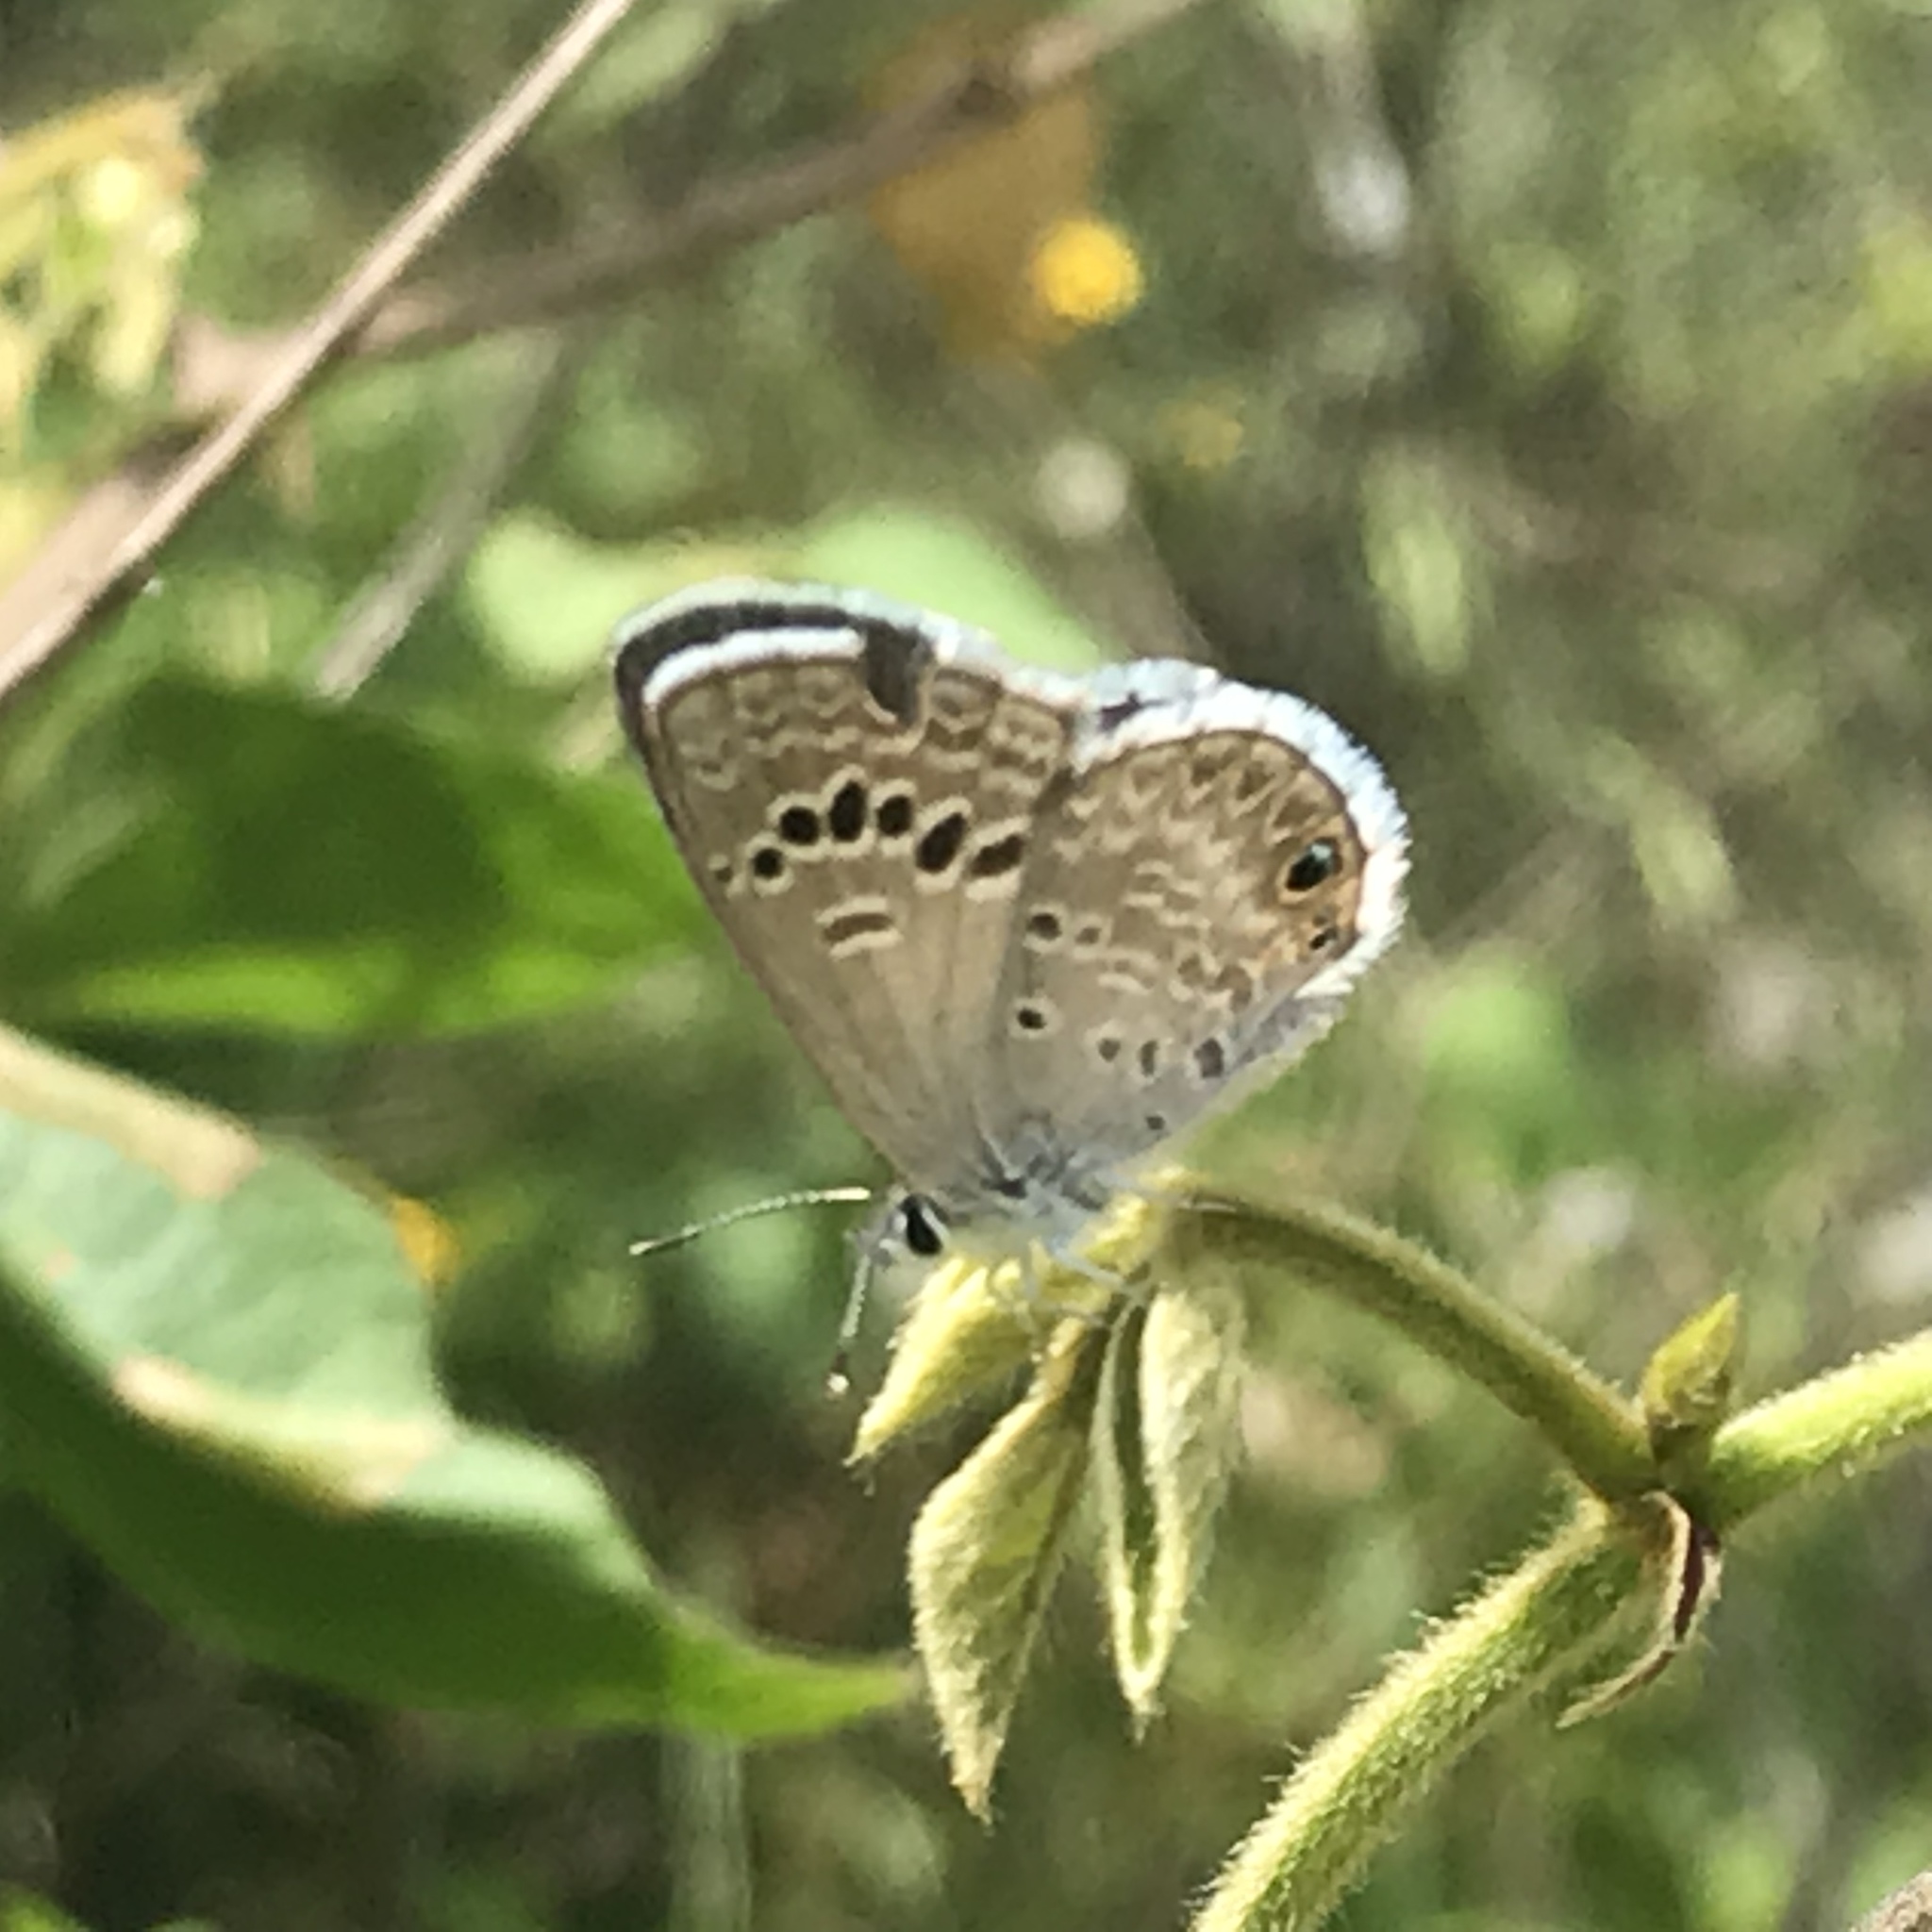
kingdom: Animalia
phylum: Arthropoda
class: Insecta
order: Lepidoptera
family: Lycaenidae
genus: Echinargus
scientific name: Echinargus isola
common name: Reakirt's blue
